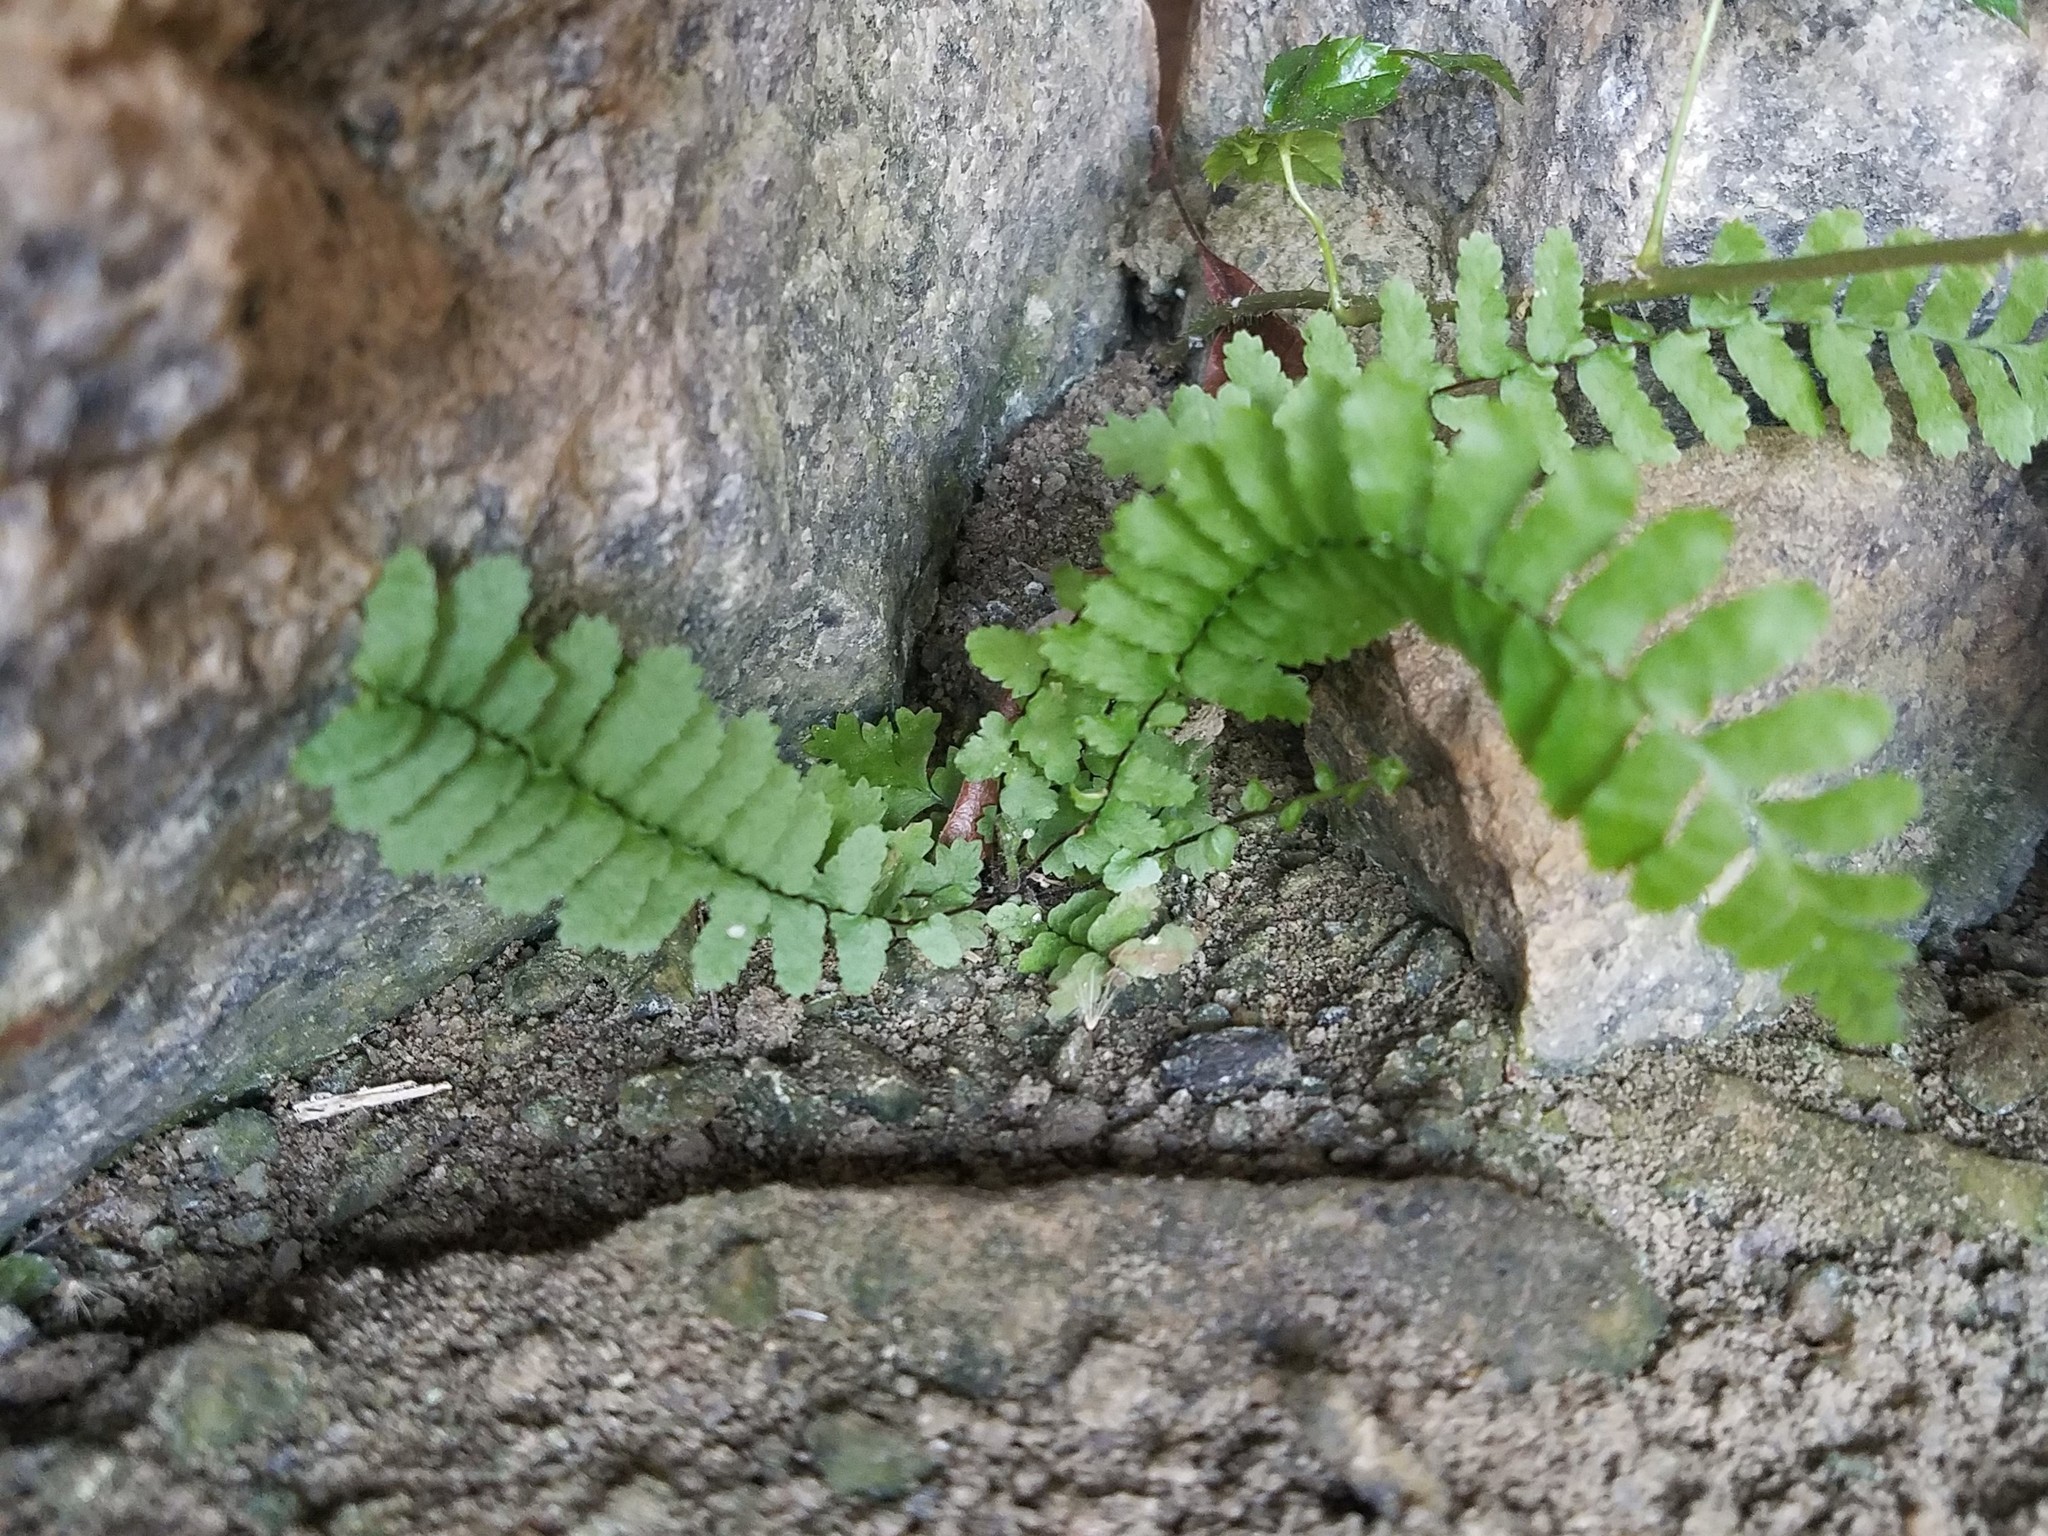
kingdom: Plantae
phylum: Tracheophyta
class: Polypodiopsida
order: Polypodiales
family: Aspleniaceae
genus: Asplenium
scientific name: Asplenium platyneuron
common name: Ebony spleenwort
